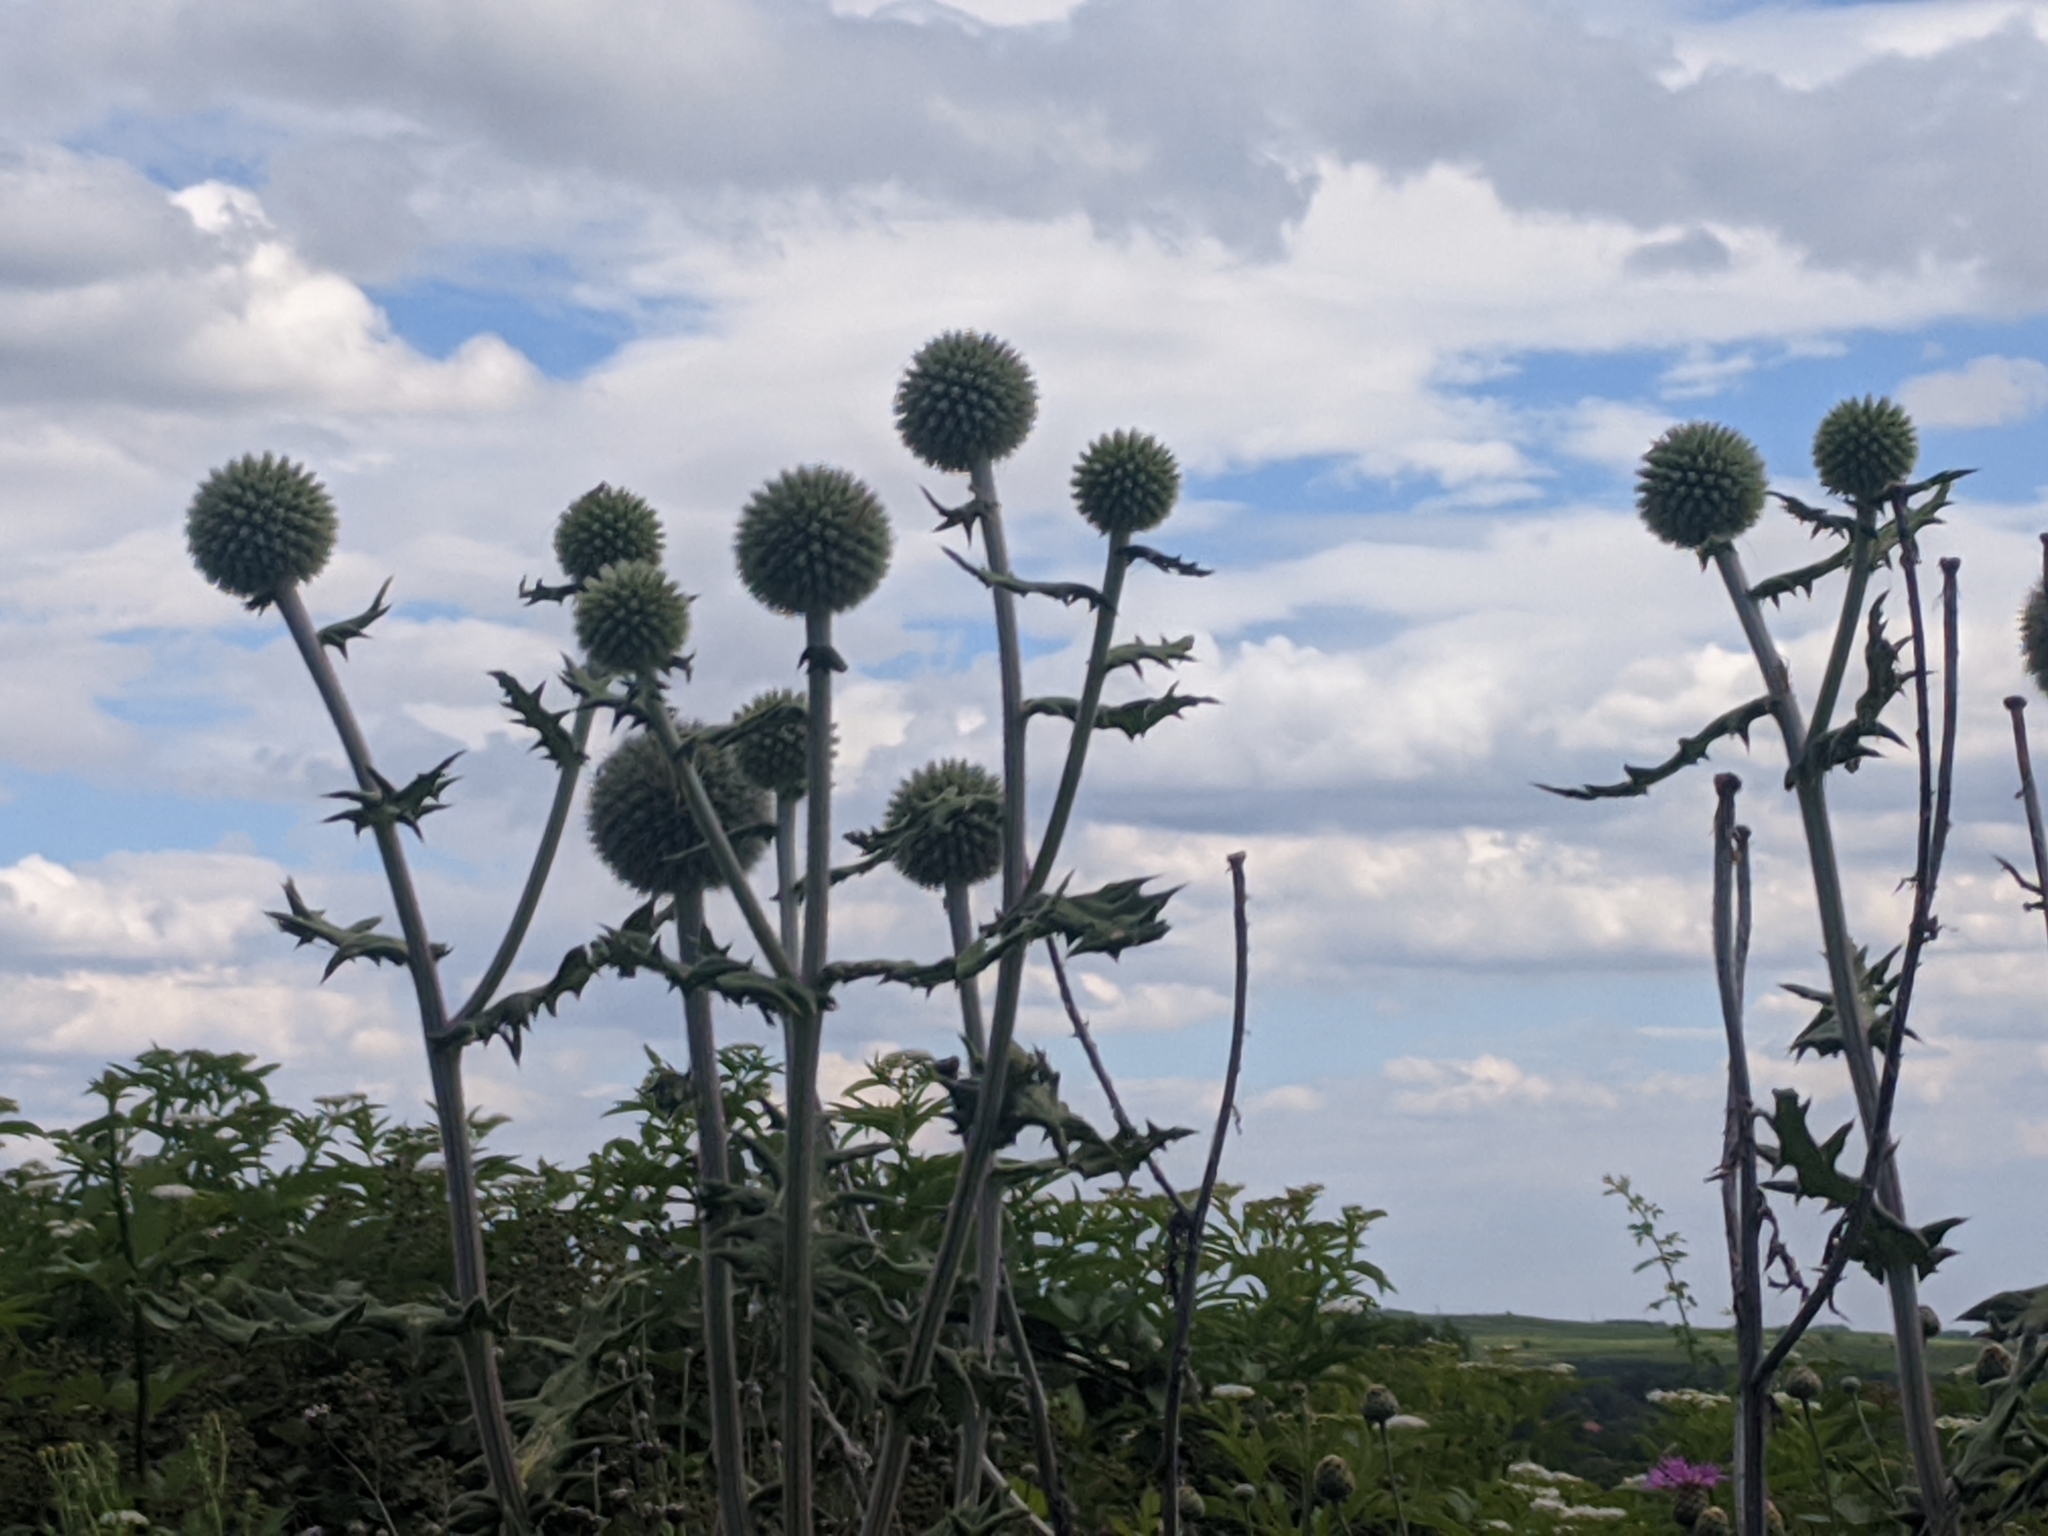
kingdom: Plantae
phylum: Tracheophyta
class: Magnoliopsida
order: Asterales
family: Asteraceae
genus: Echinops
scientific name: Echinops sphaerocephalus
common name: Glandular globe-thistle
